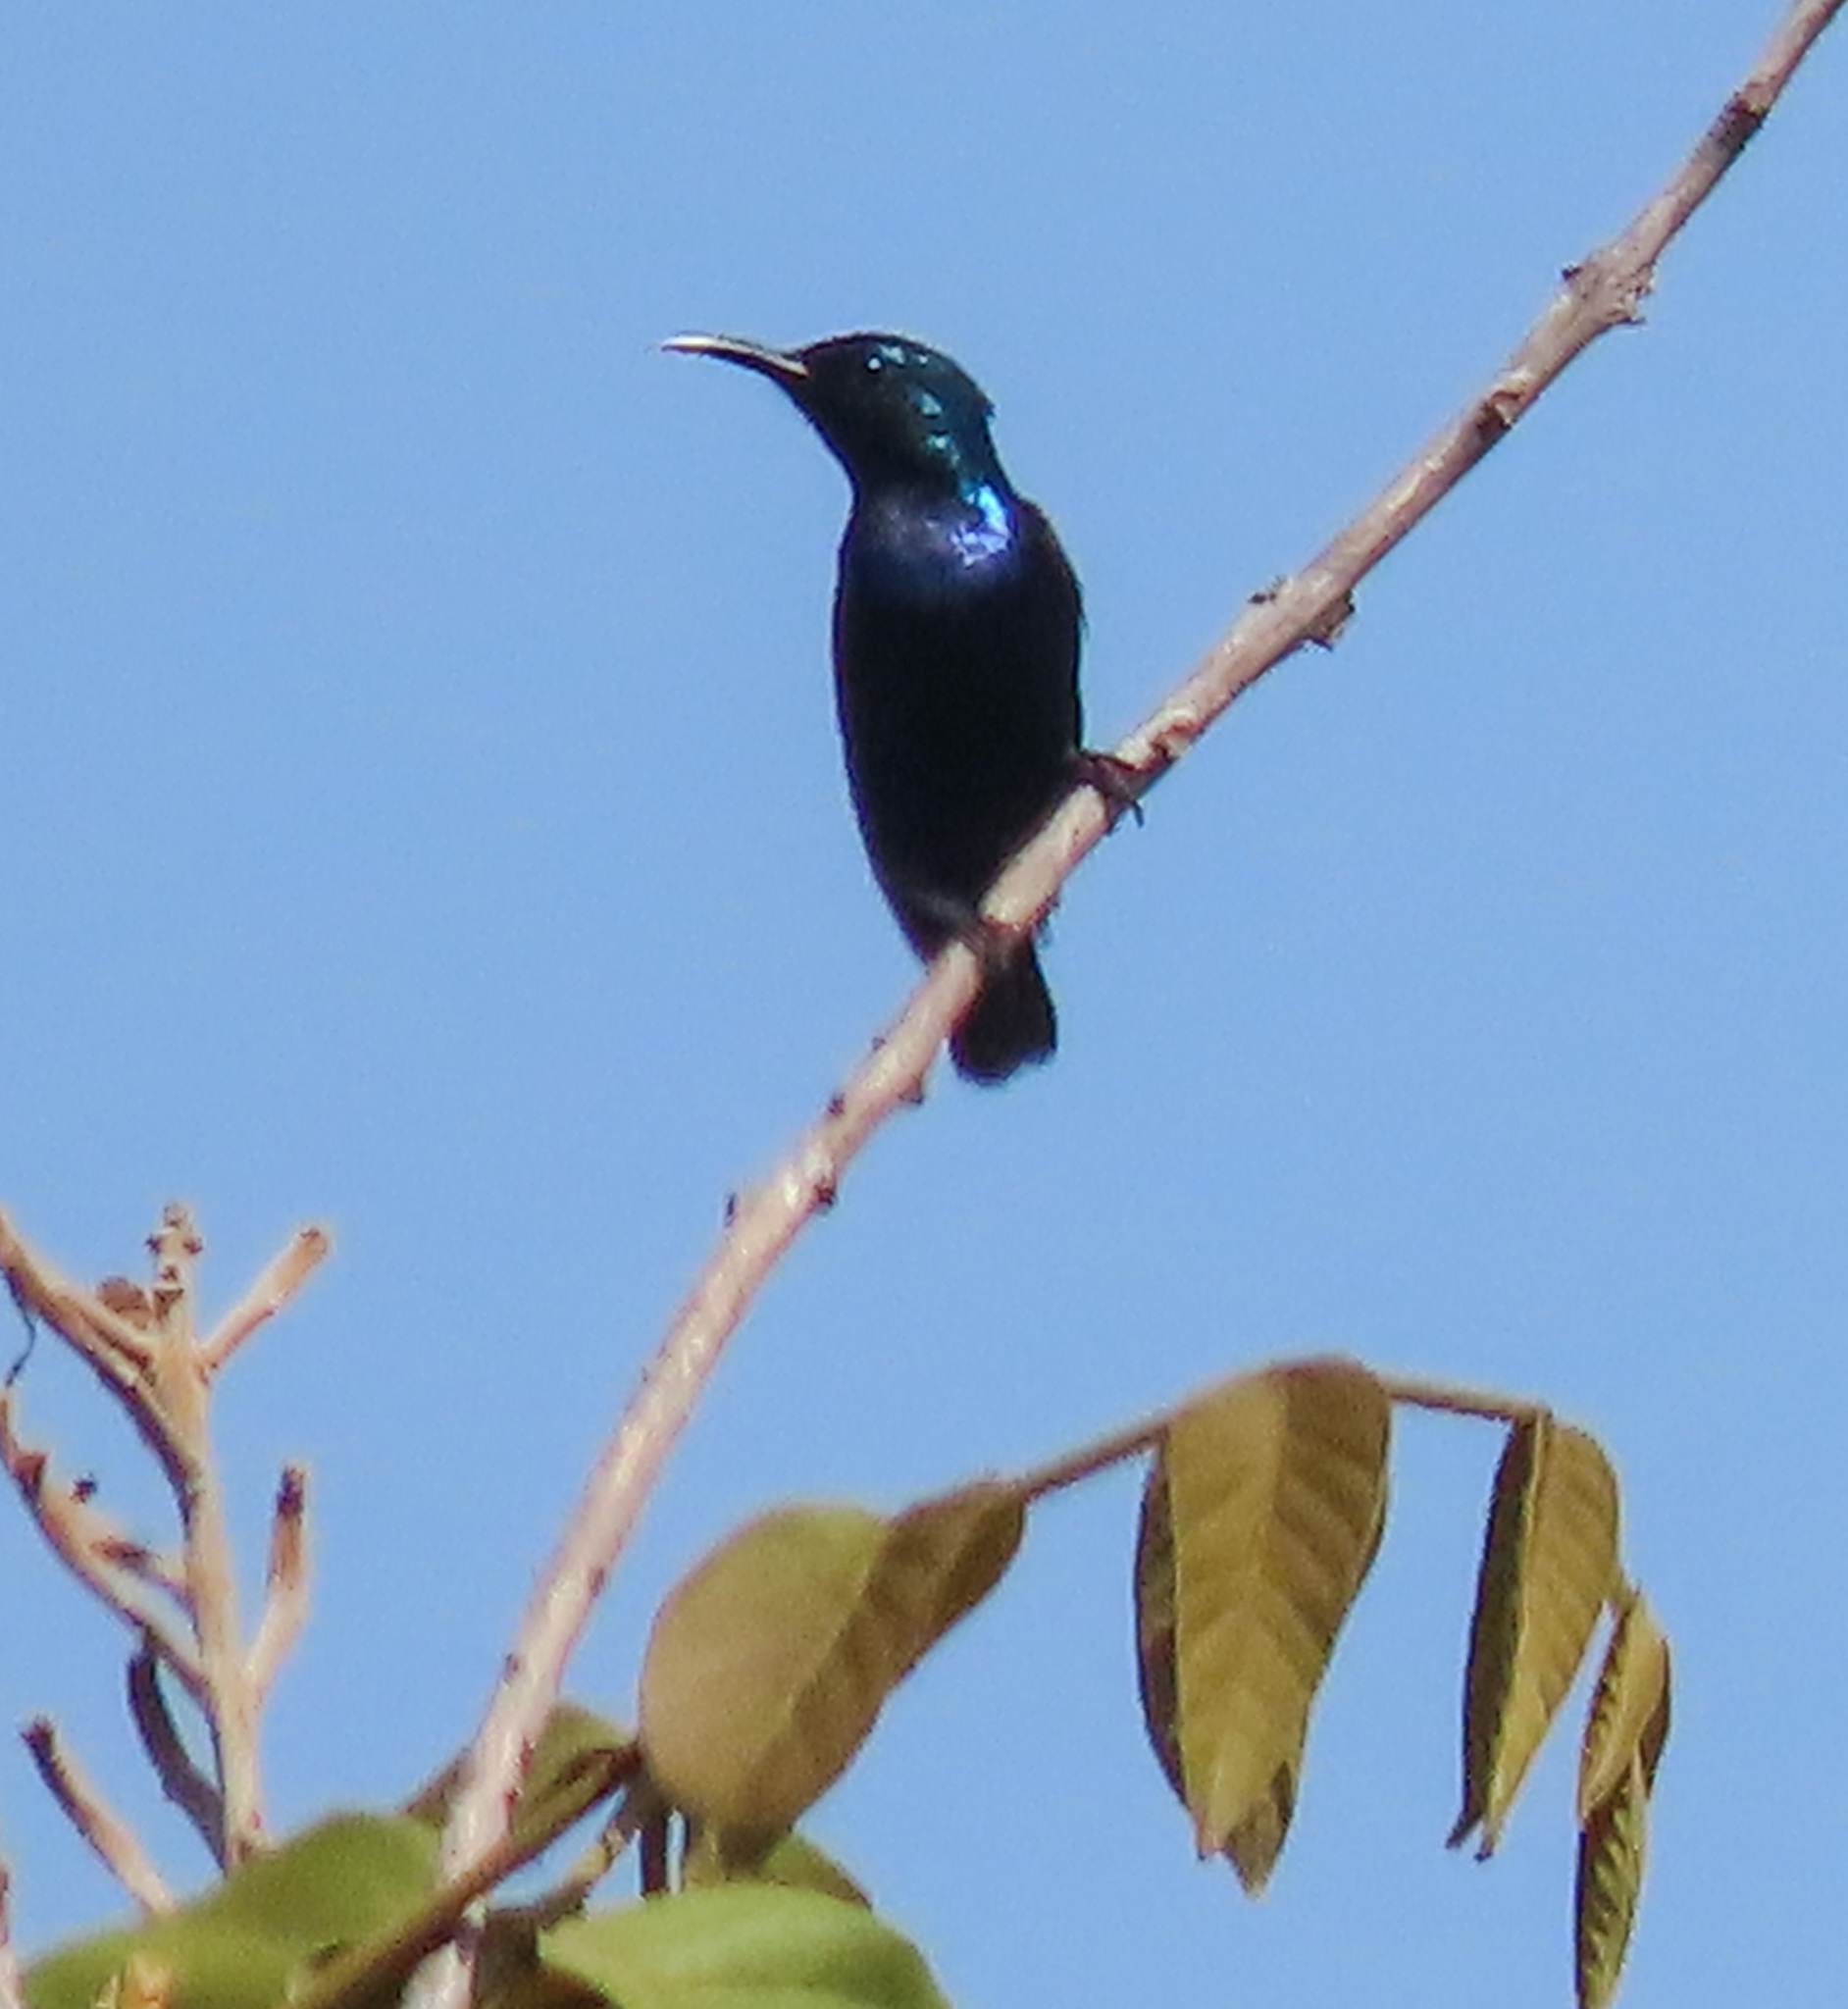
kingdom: Animalia
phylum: Chordata
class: Aves
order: Passeriformes
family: Nectariniidae
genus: Cinnyris
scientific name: Cinnyris asiaticus
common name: Purple sunbird
